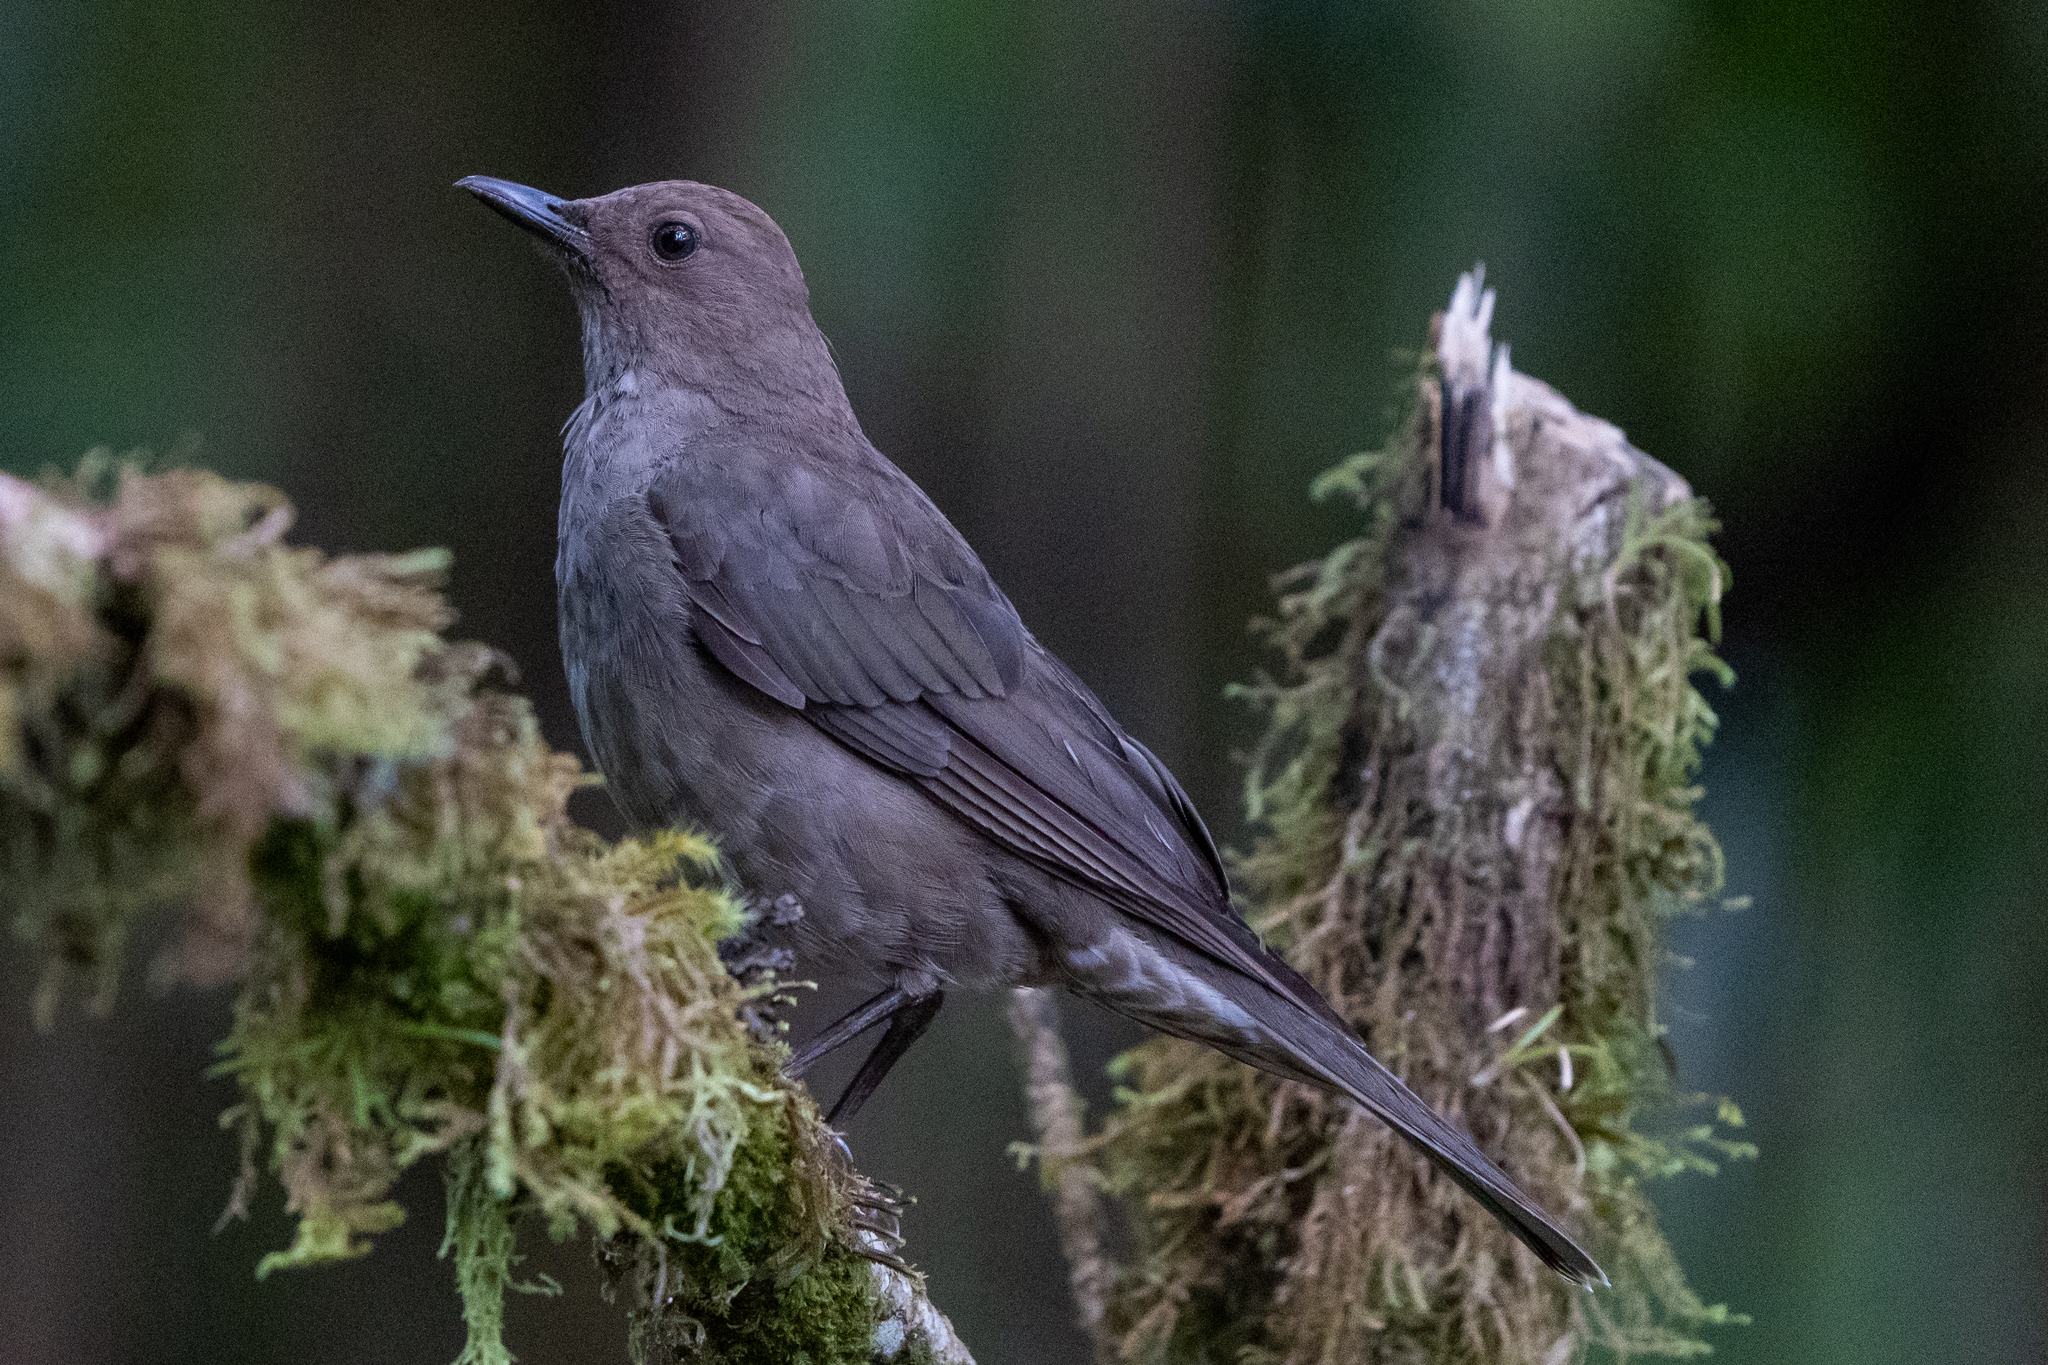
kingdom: Animalia
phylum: Chordata
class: Aves
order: Passeriformes
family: Turdidae
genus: Turdus
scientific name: Turdus plebejus
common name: Mountain thrush
